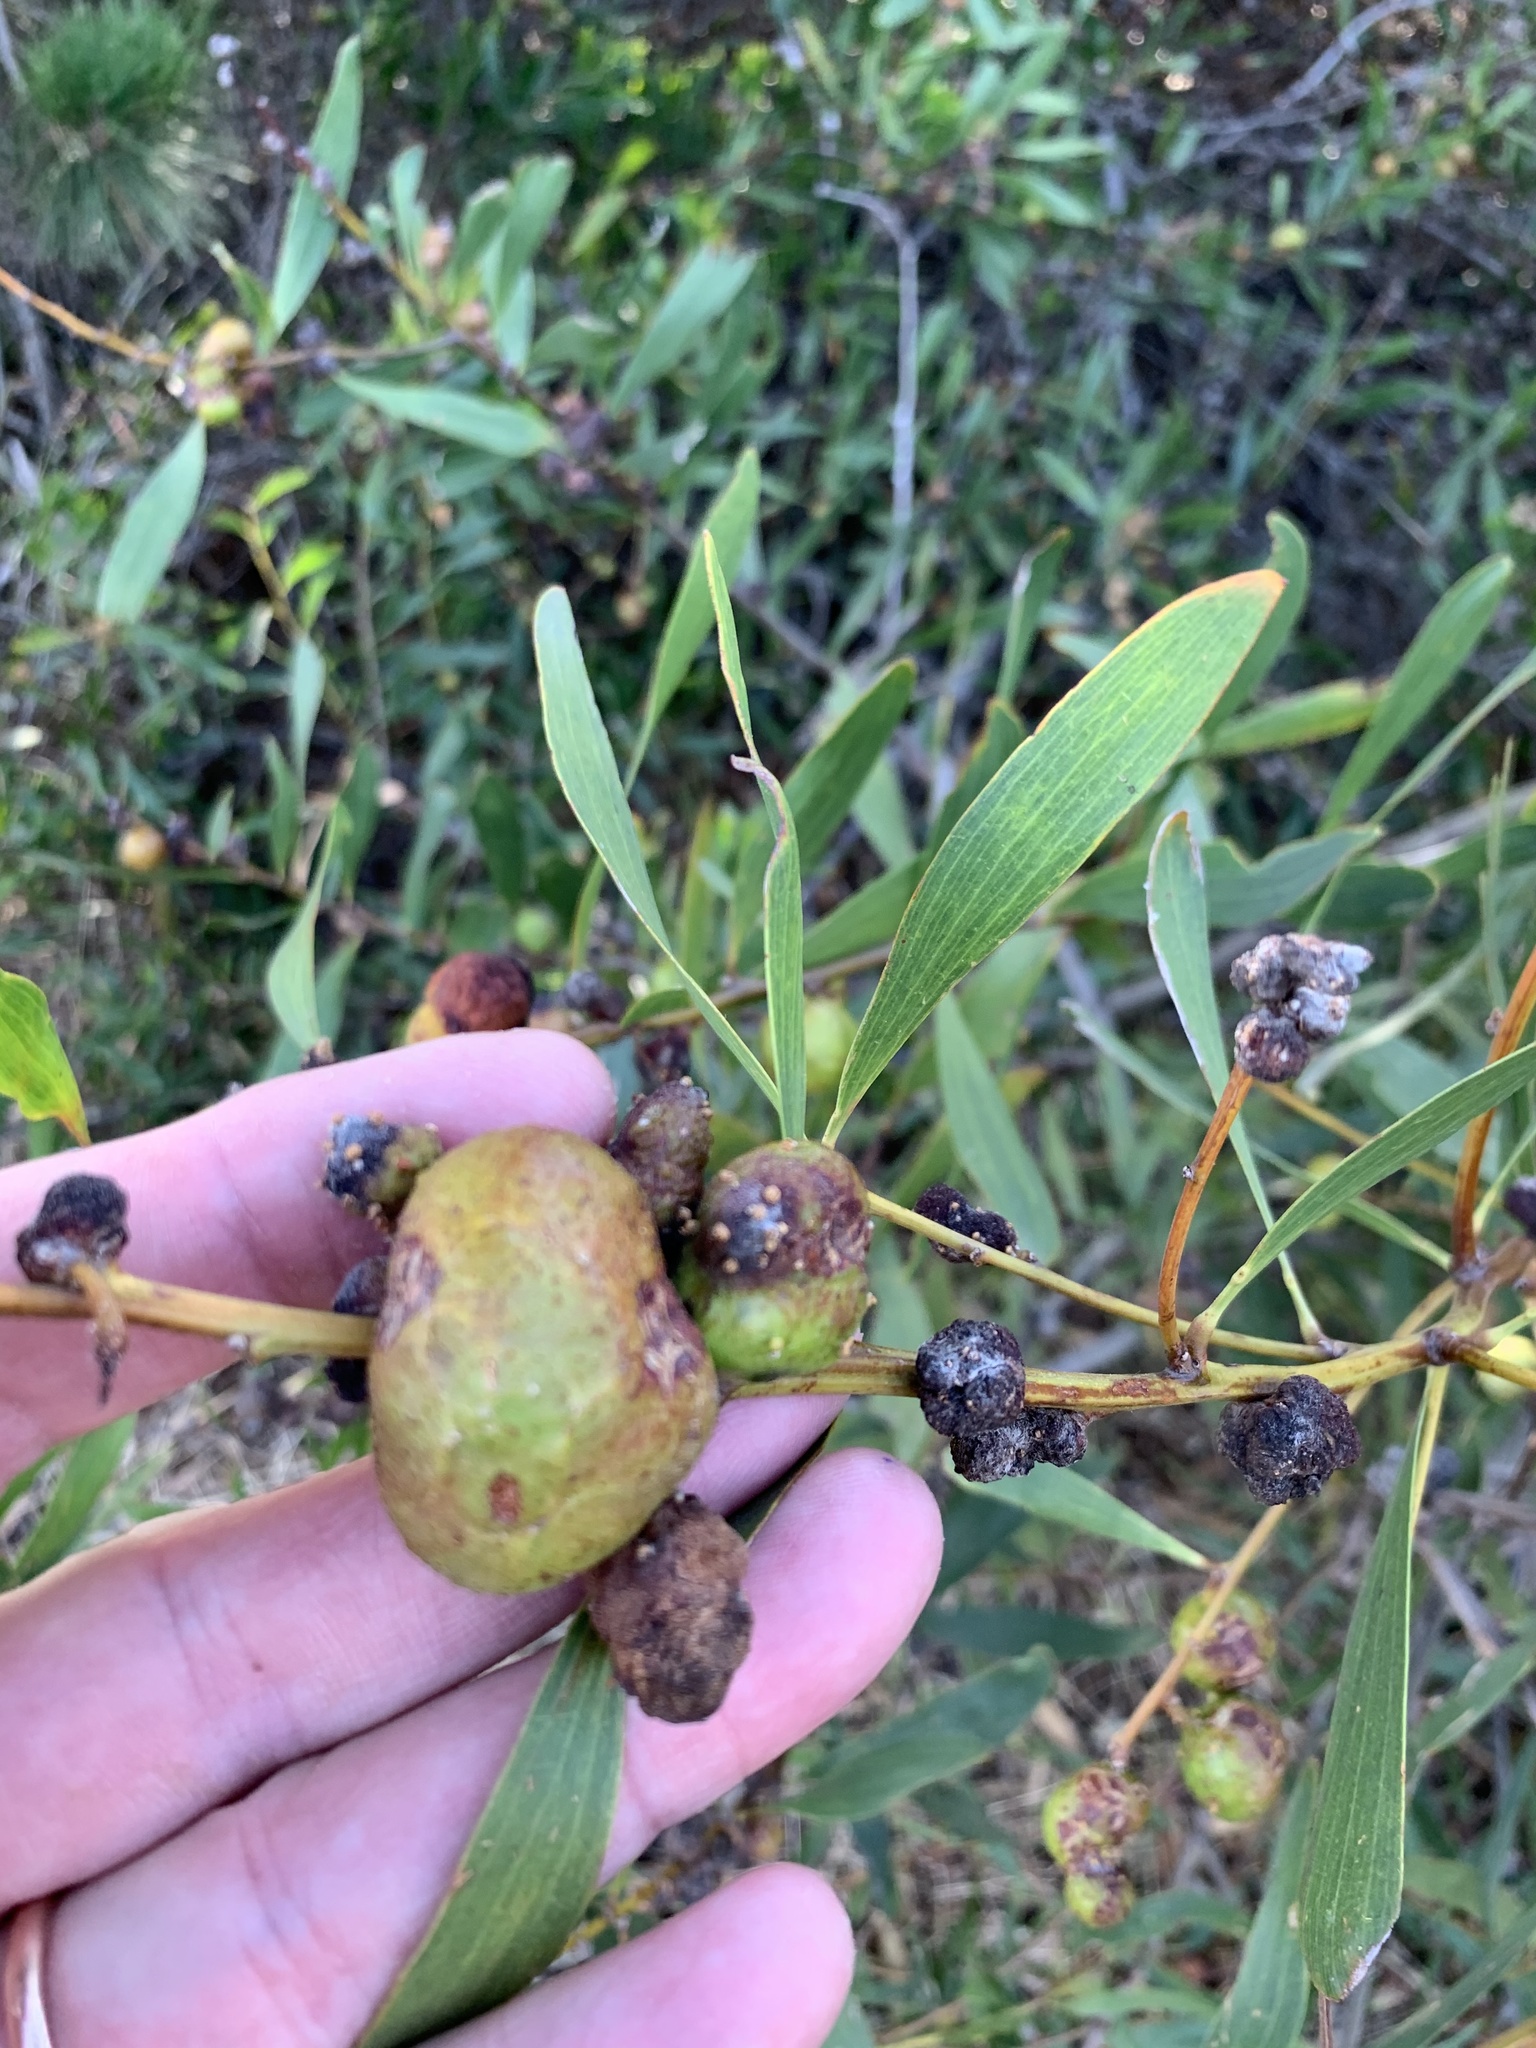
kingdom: Animalia
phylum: Arthropoda
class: Insecta
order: Hymenoptera
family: Pteromalidae
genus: Trichilogaster
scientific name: Trichilogaster acaciaelongifoliae
